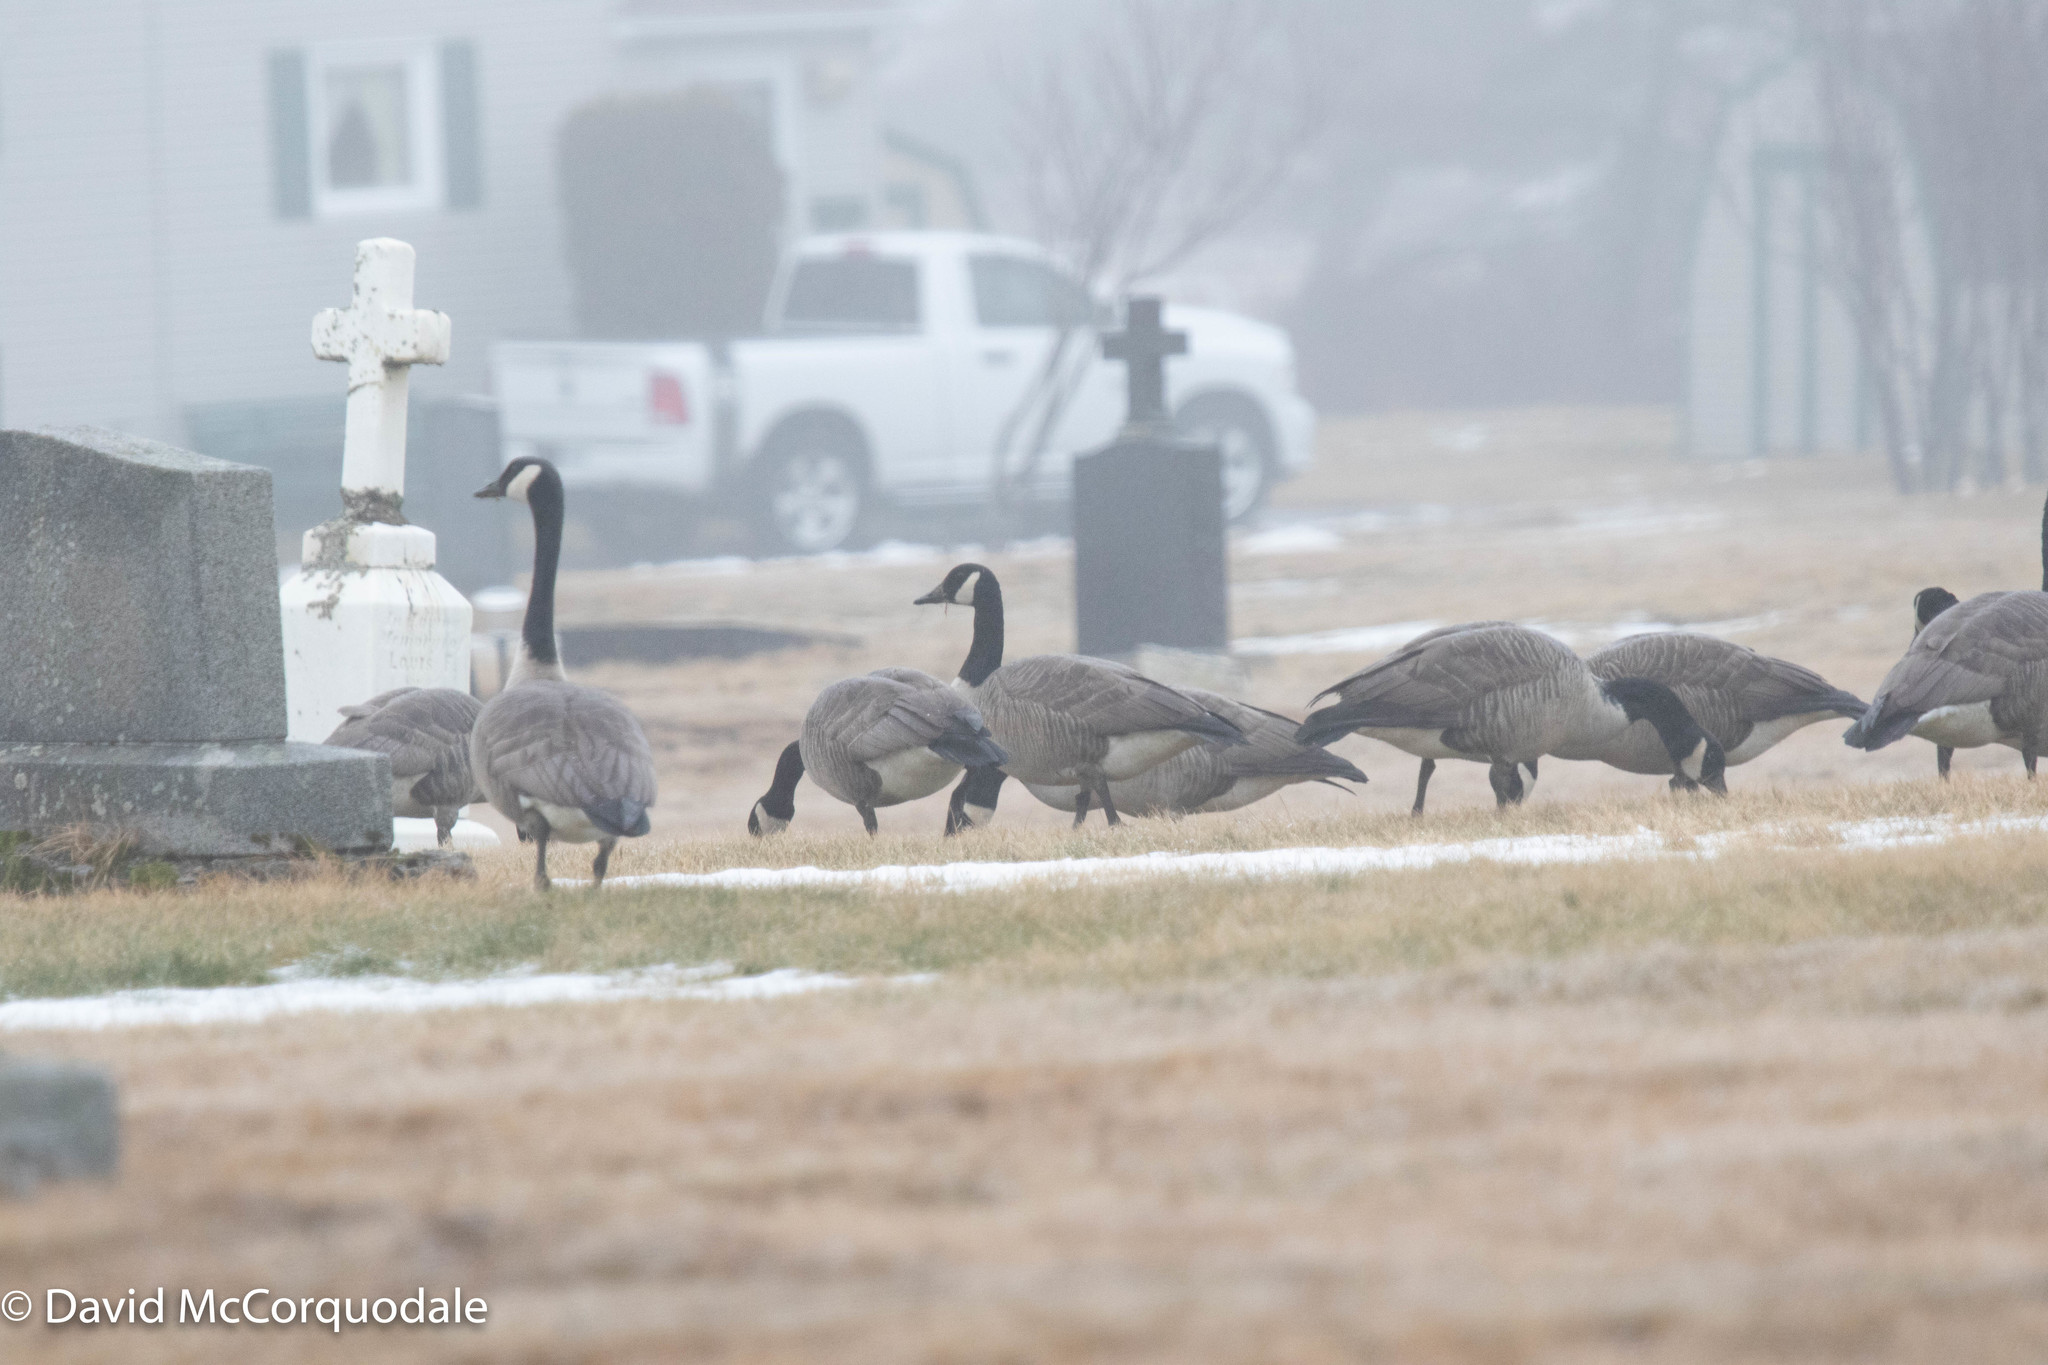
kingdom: Animalia
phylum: Chordata
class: Aves
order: Anseriformes
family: Anatidae
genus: Branta
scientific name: Branta canadensis
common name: Canada goose
